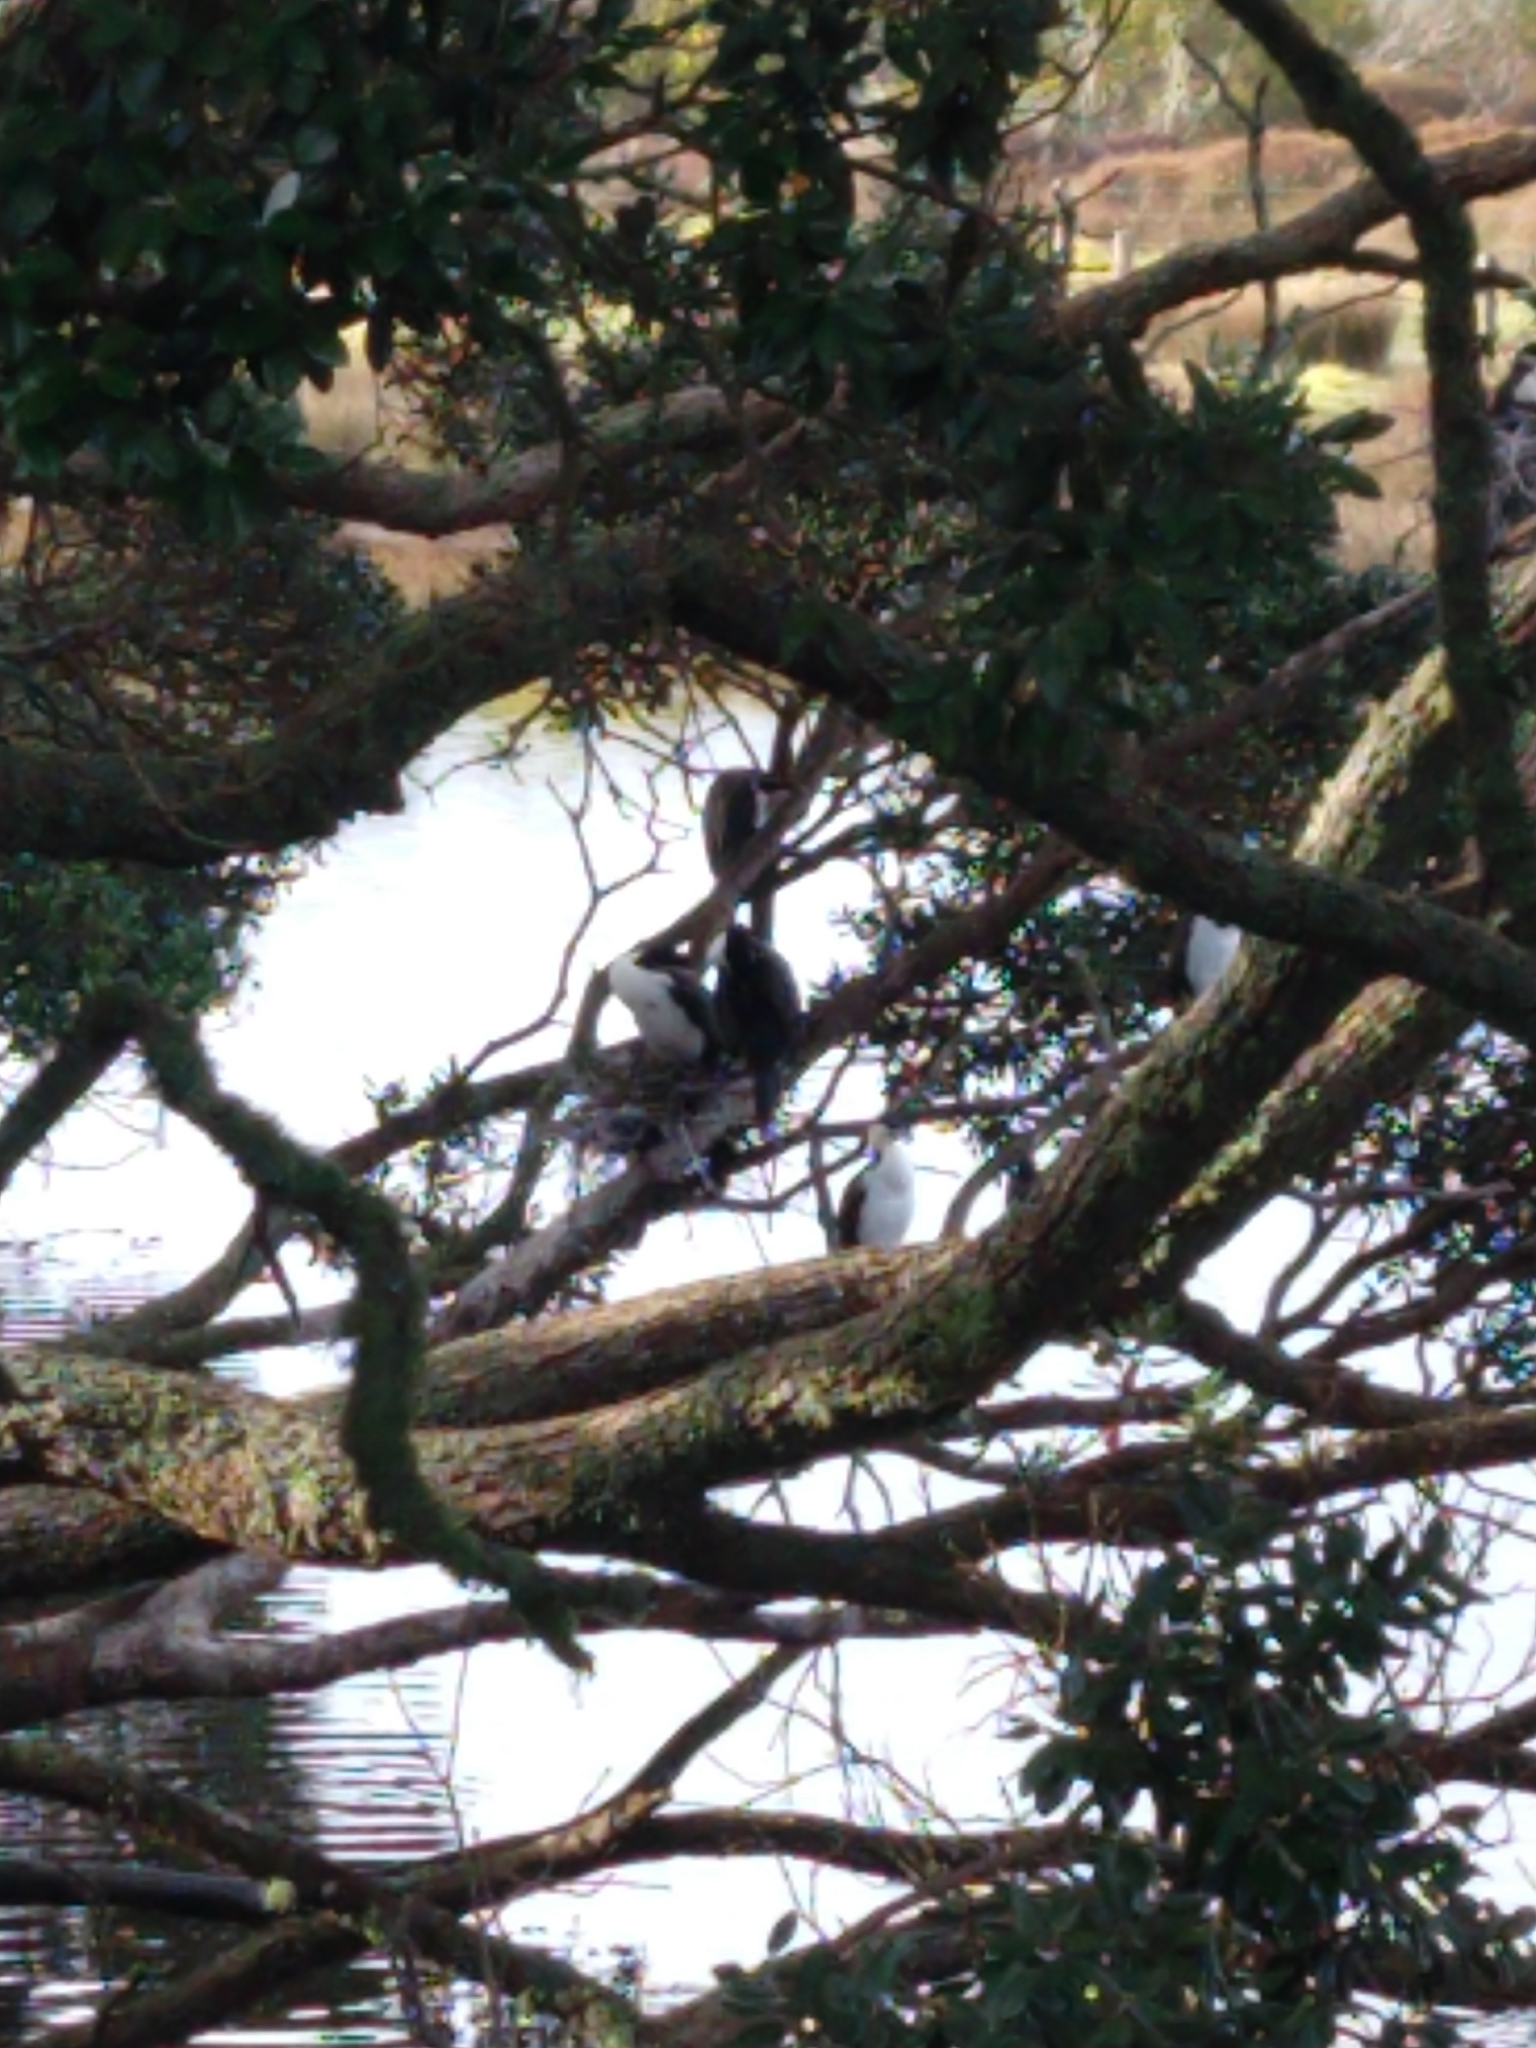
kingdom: Animalia
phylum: Chordata
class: Aves
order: Suliformes
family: Phalacrocoracidae
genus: Phalacrocorax
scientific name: Phalacrocorax varius
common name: Pied cormorant
